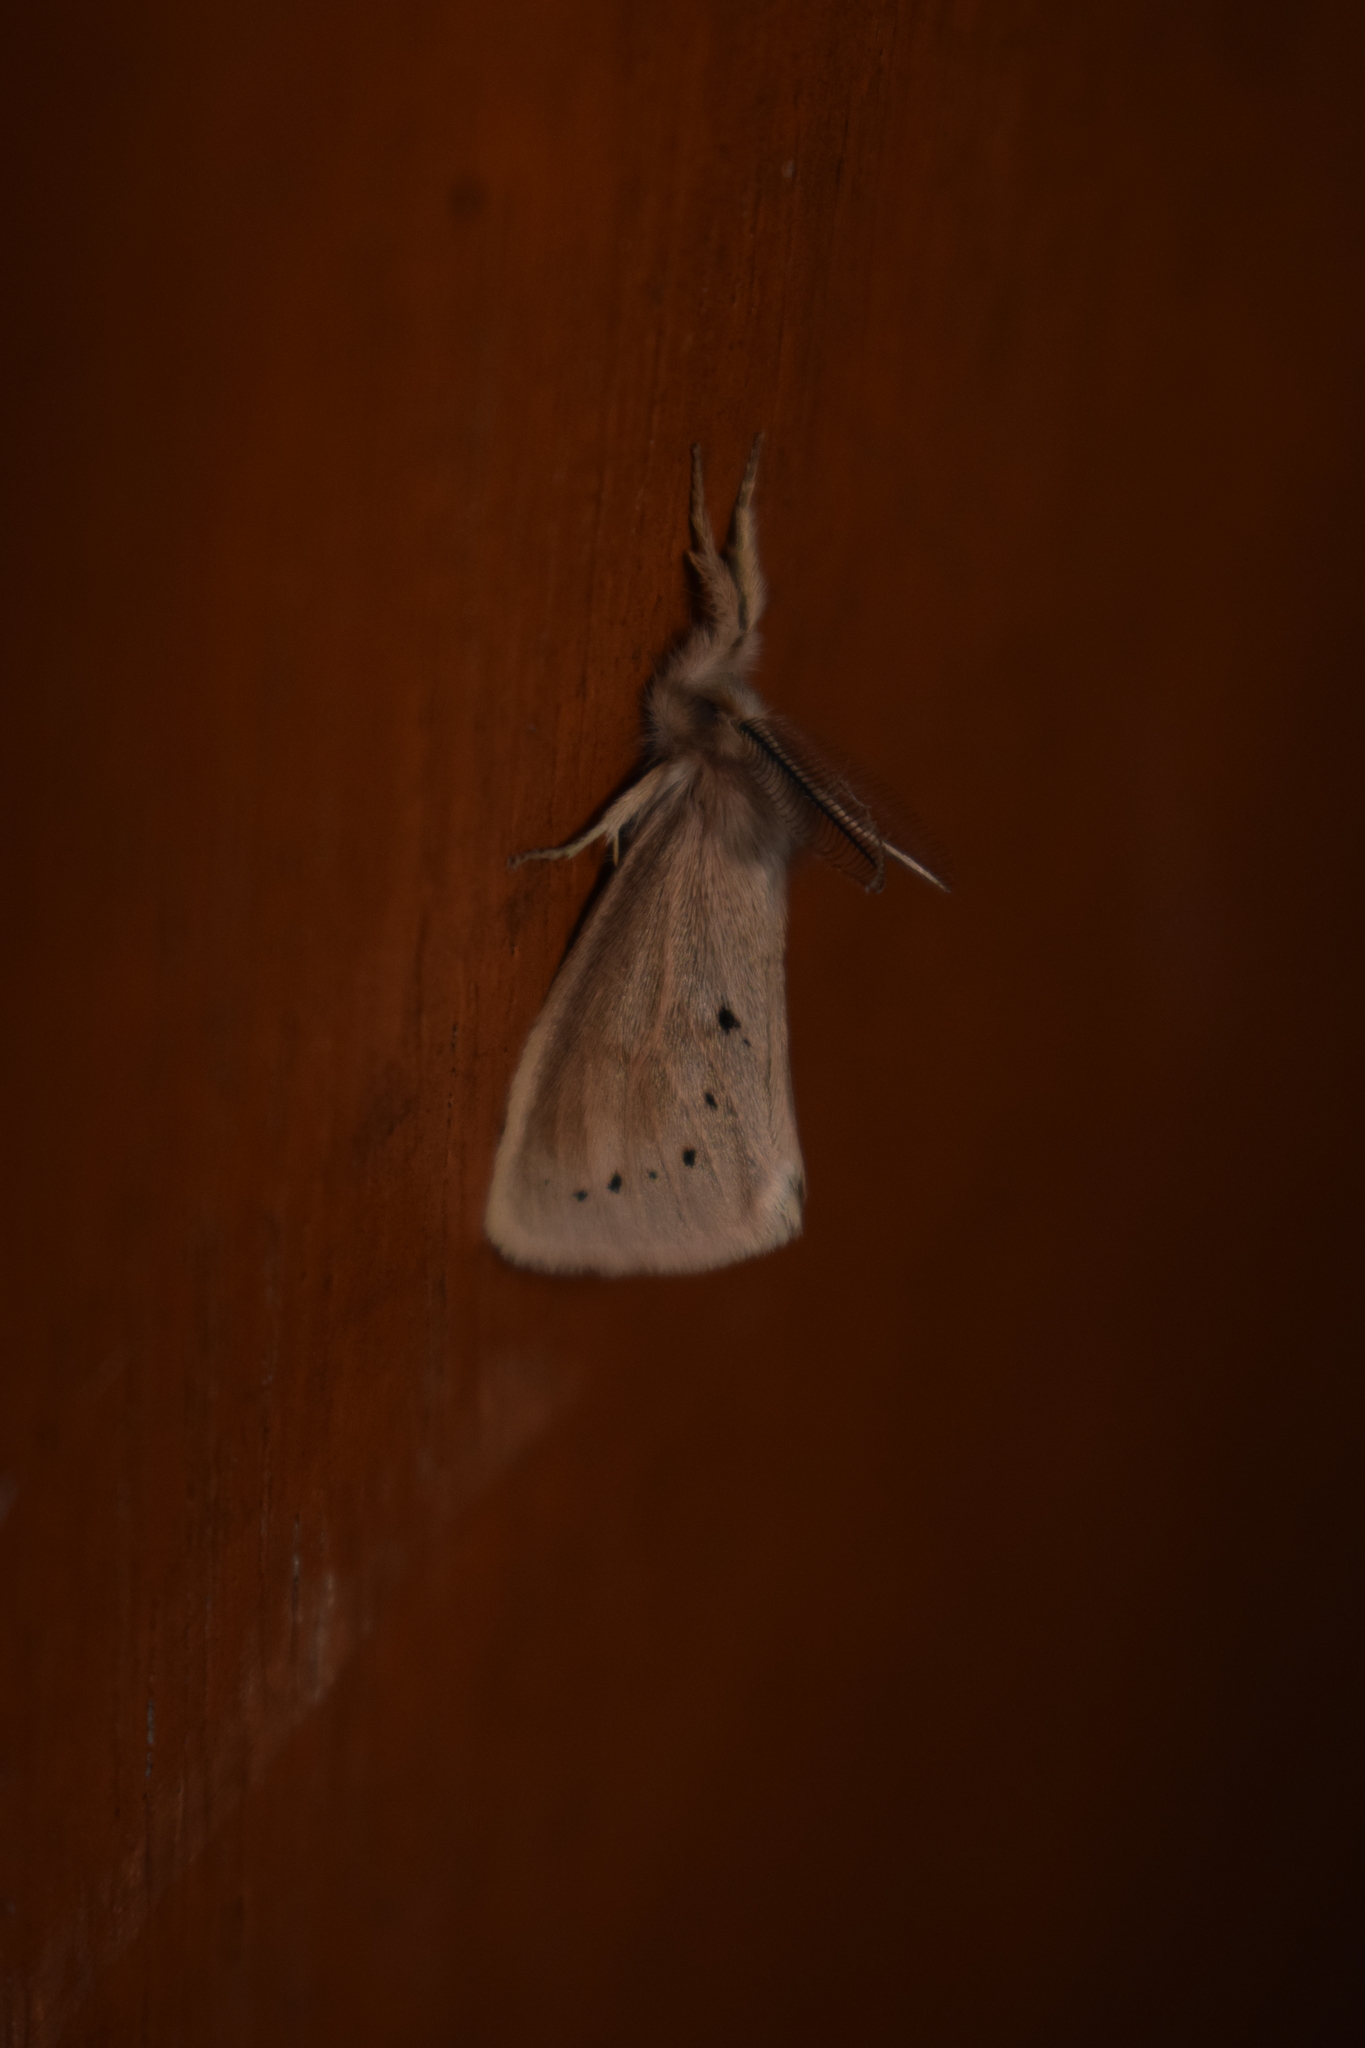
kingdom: Animalia
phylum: Arthropoda
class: Insecta
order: Lepidoptera
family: Erebidae
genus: Laelia
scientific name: Laelia umbrina
